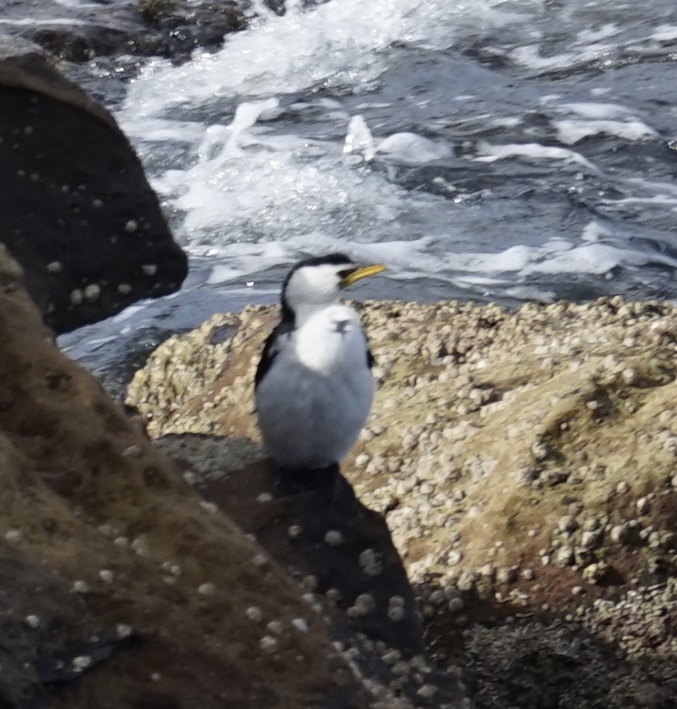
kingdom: Animalia
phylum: Chordata
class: Aves
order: Suliformes
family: Phalacrocoracidae
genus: Microcarbo
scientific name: Microcarbo melanoleucos
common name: Little pied cormorant
